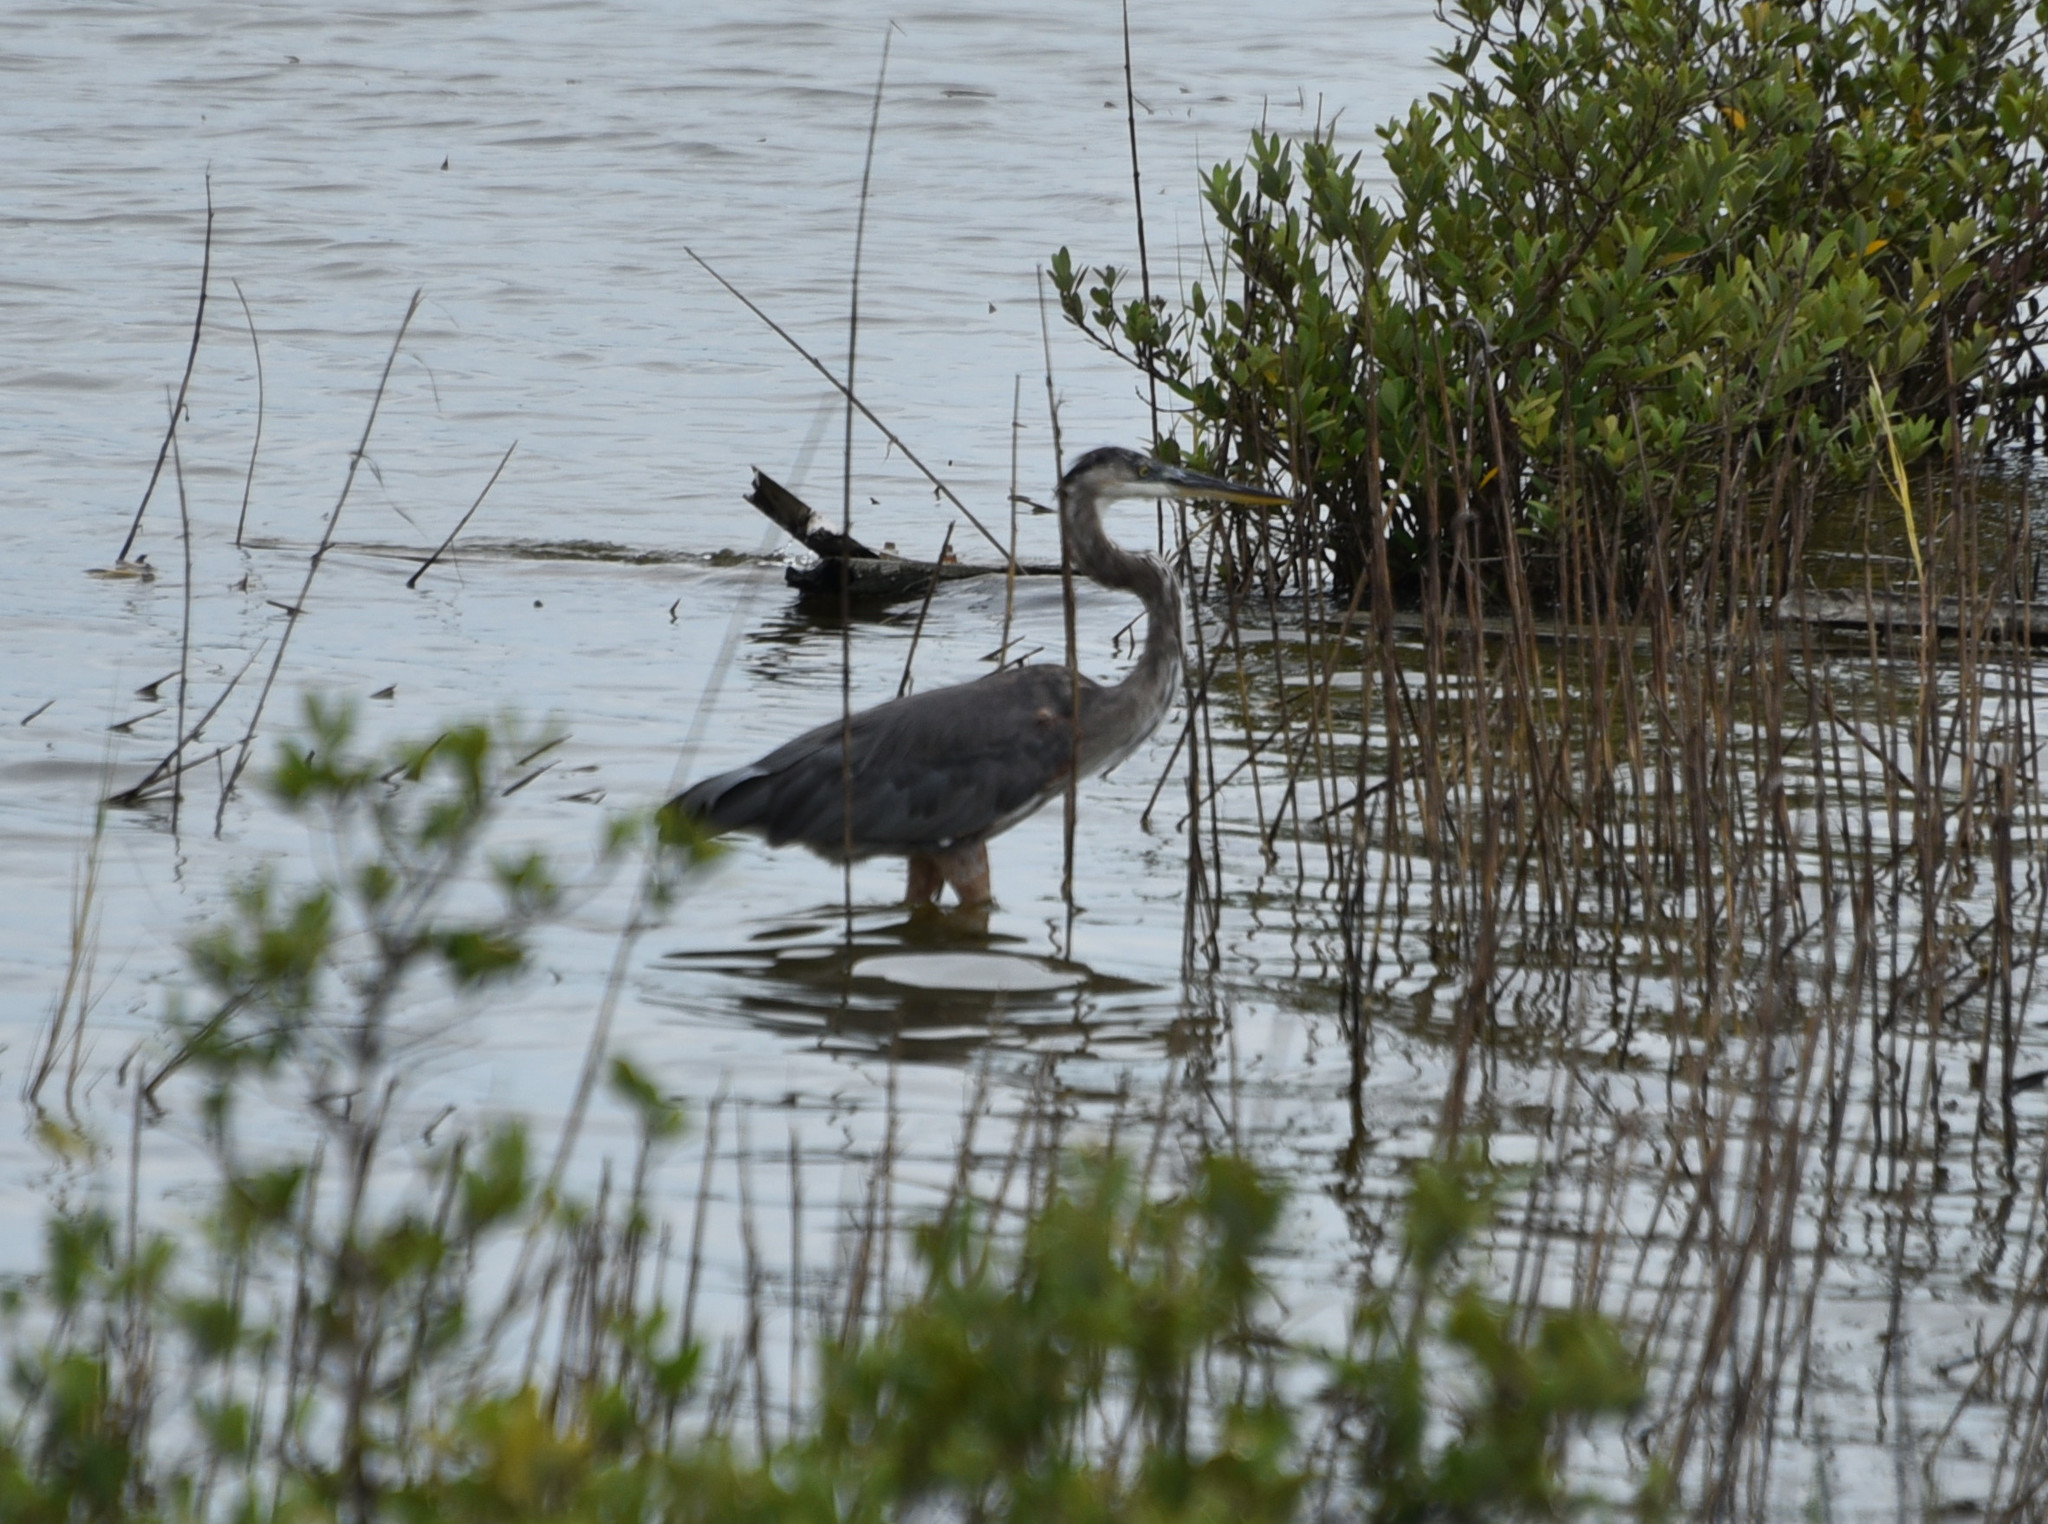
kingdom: Animalia
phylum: Chordata
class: Aves
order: Pelecaniformes
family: Ardeidae
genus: Ardea
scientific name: Ardea herodias
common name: Great blue heron
